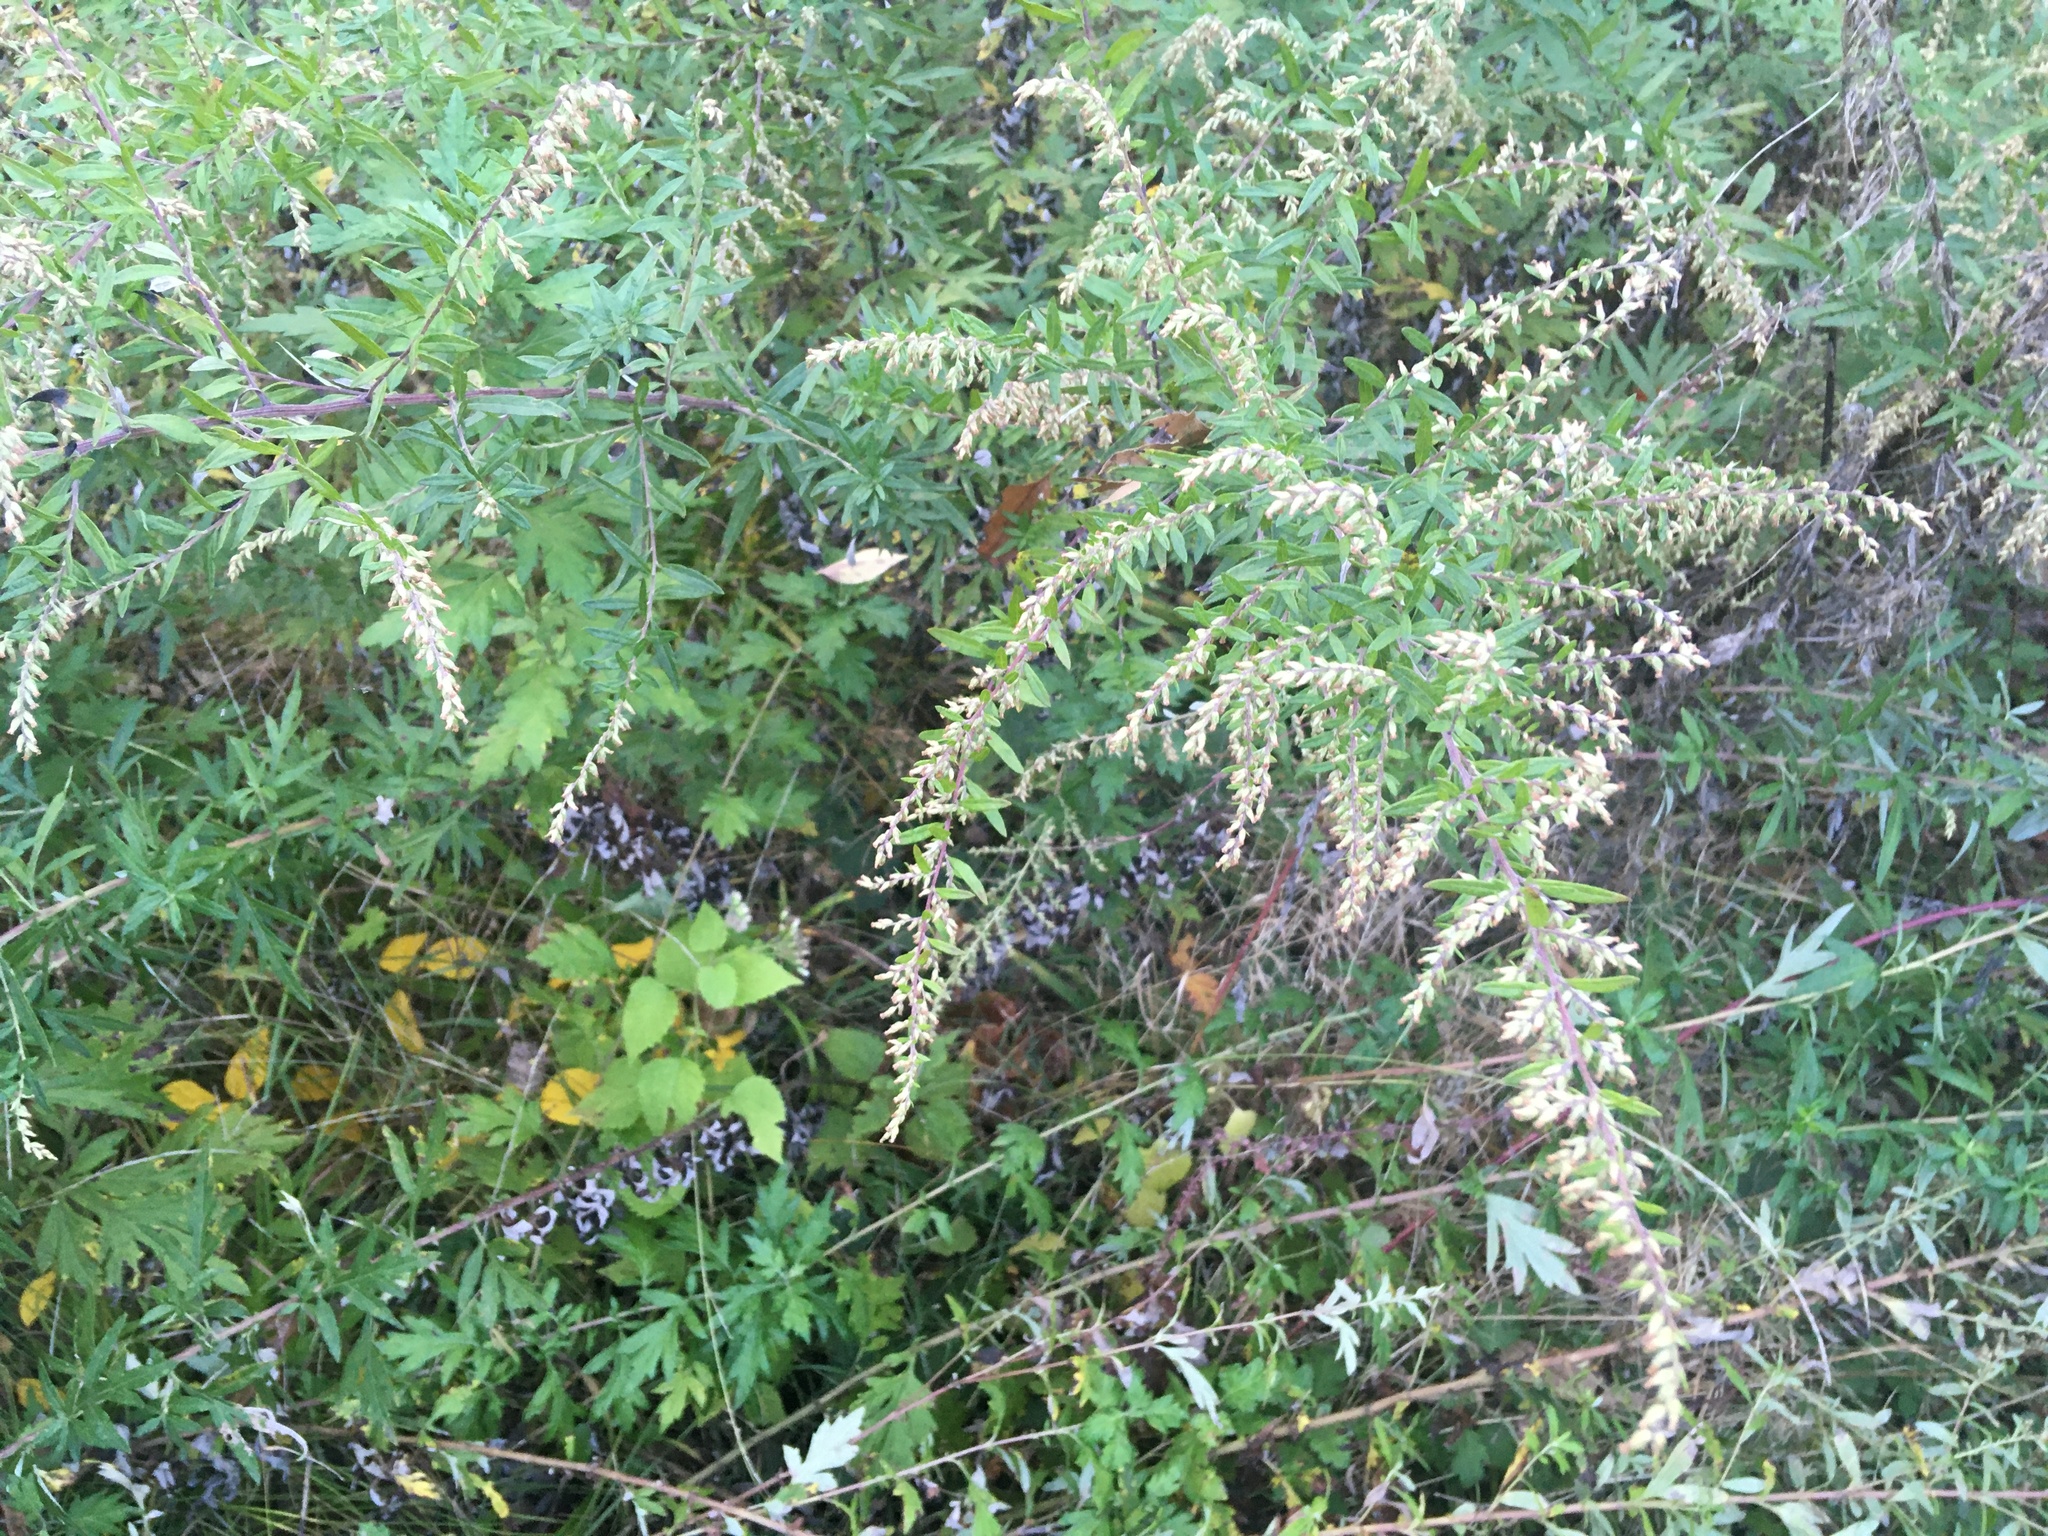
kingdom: Plantae
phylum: Tracheophyta
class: Magnoliopsida
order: Asterales
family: Asteraceae
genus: Artemisia
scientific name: Artemisia vulgaris
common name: Mugwort
